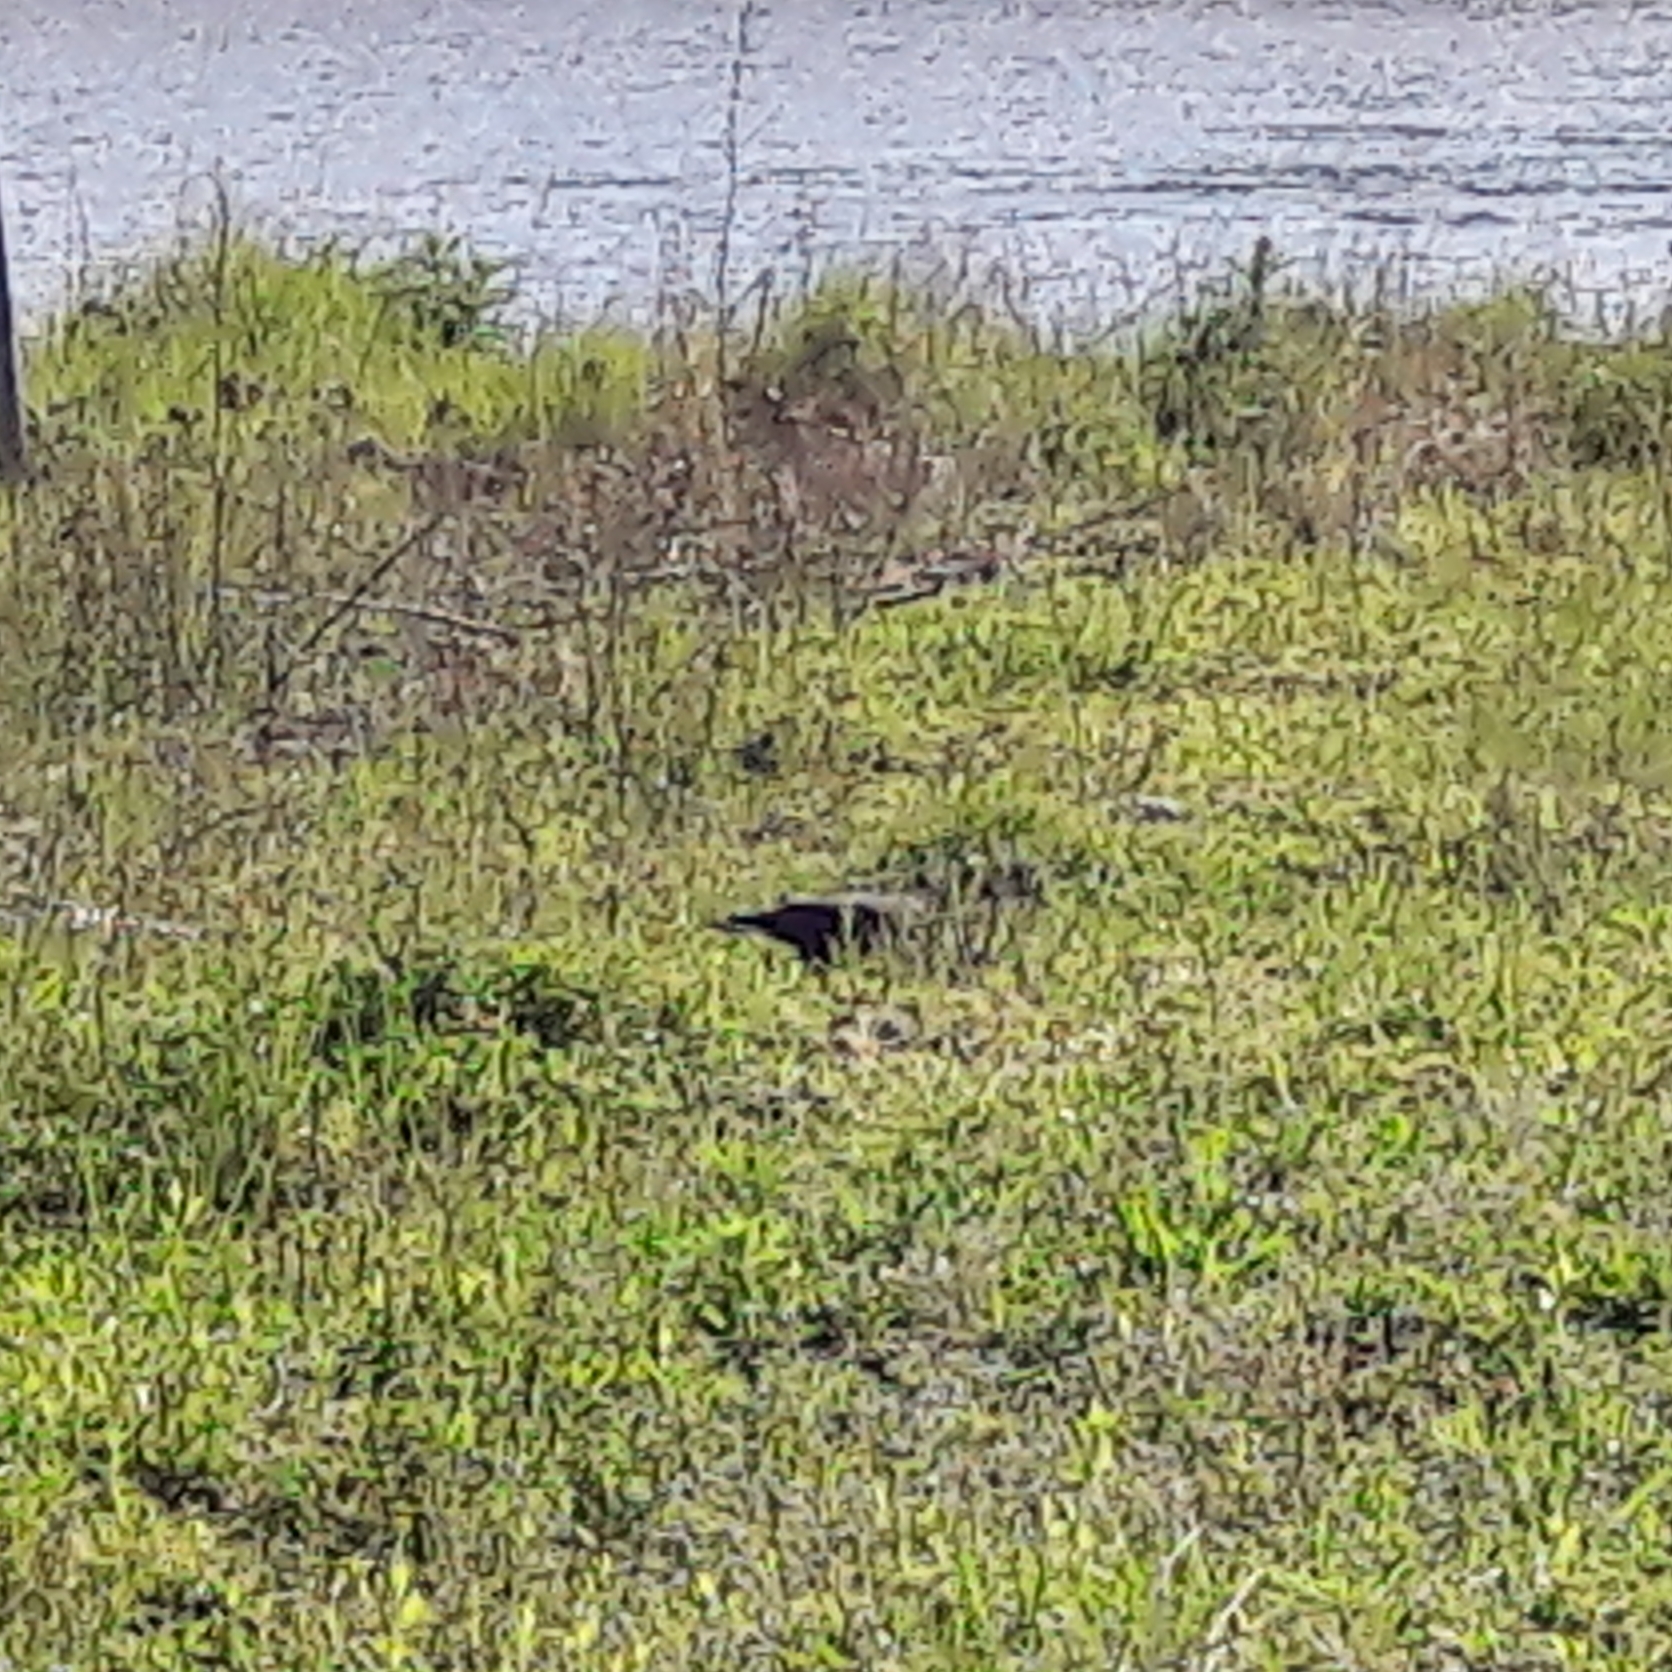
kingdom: Animalia
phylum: Chordata
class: Aves
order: Passeriformes
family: Corvidae
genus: Coloeus
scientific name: Coloeus monedula
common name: Western jackdaw
